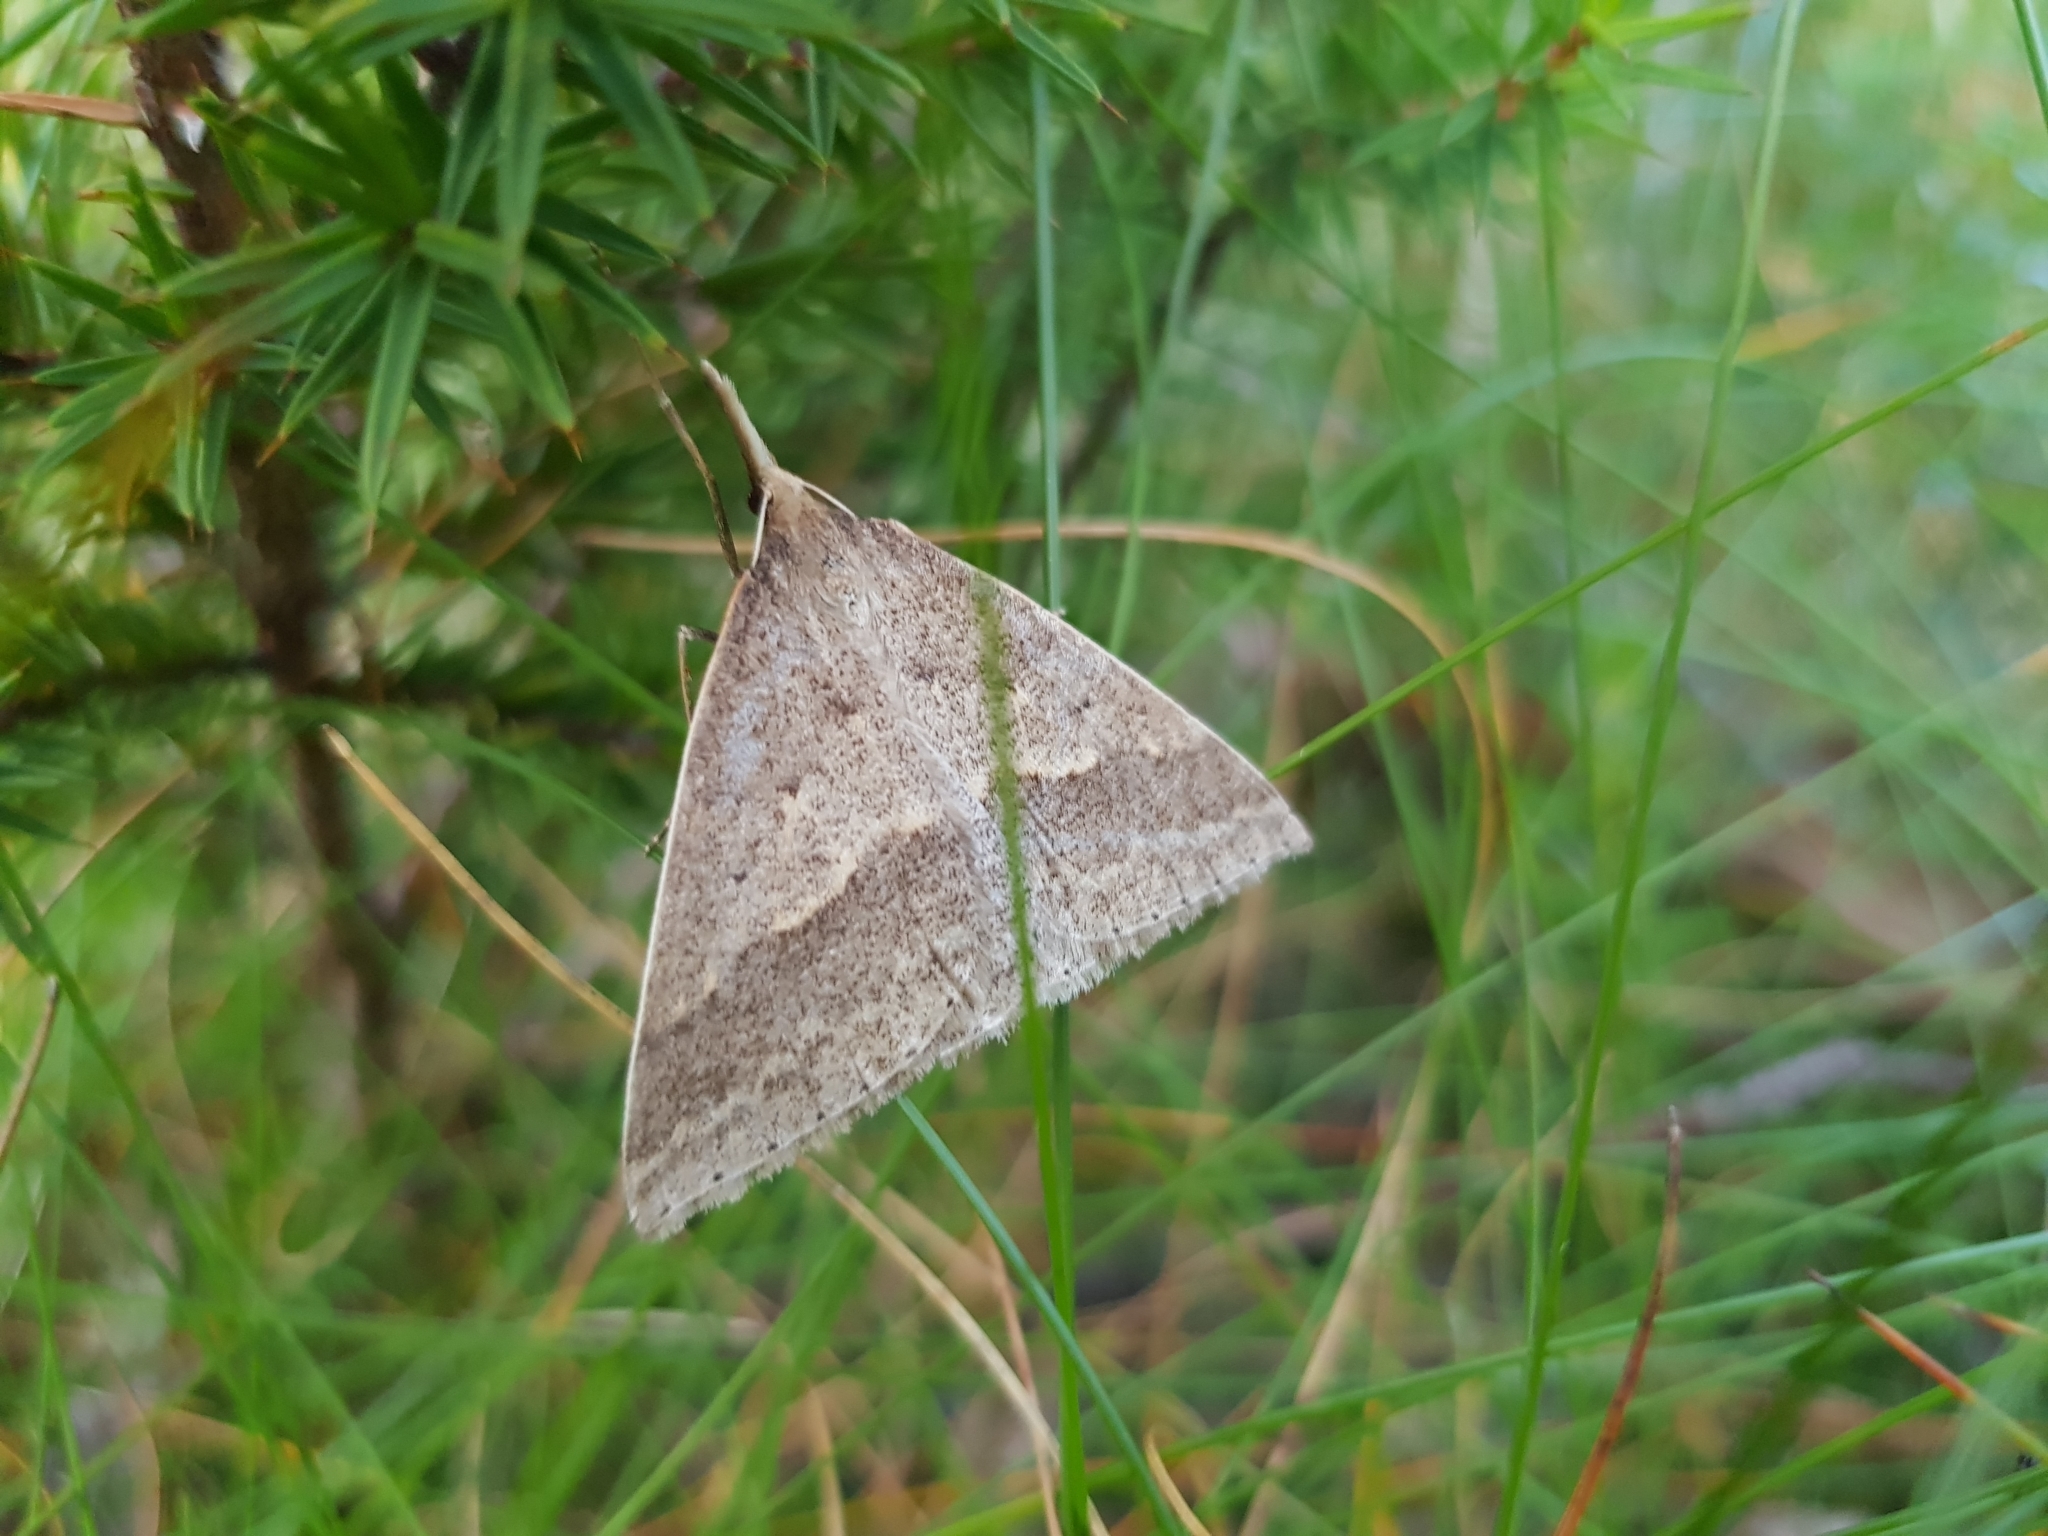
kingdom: Animalia
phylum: Arthropoda
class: Insecta
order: Lepidoptera
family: Geometridae
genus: Epidesmia
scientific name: Epidesmia hypenaria
